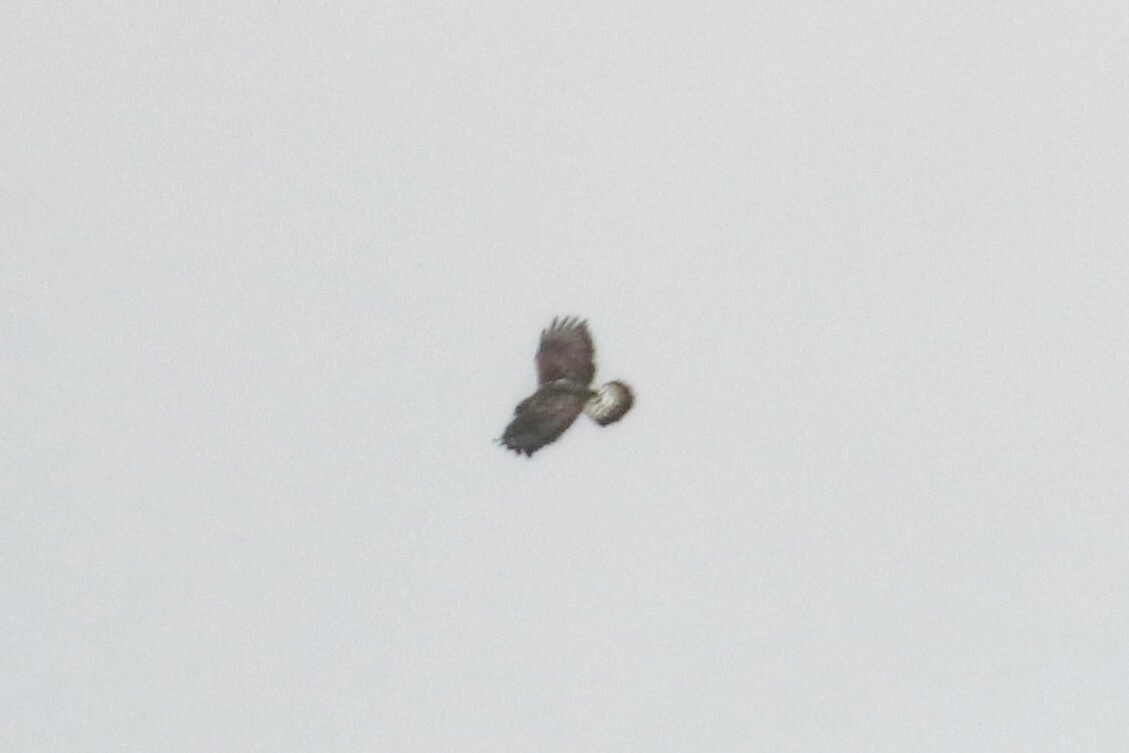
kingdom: Animalia
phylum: Chordata
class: Aves
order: Accipitriformes
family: Accipitridae
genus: Buteo
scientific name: Buteo lagopus
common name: Rough-legged buzzard
